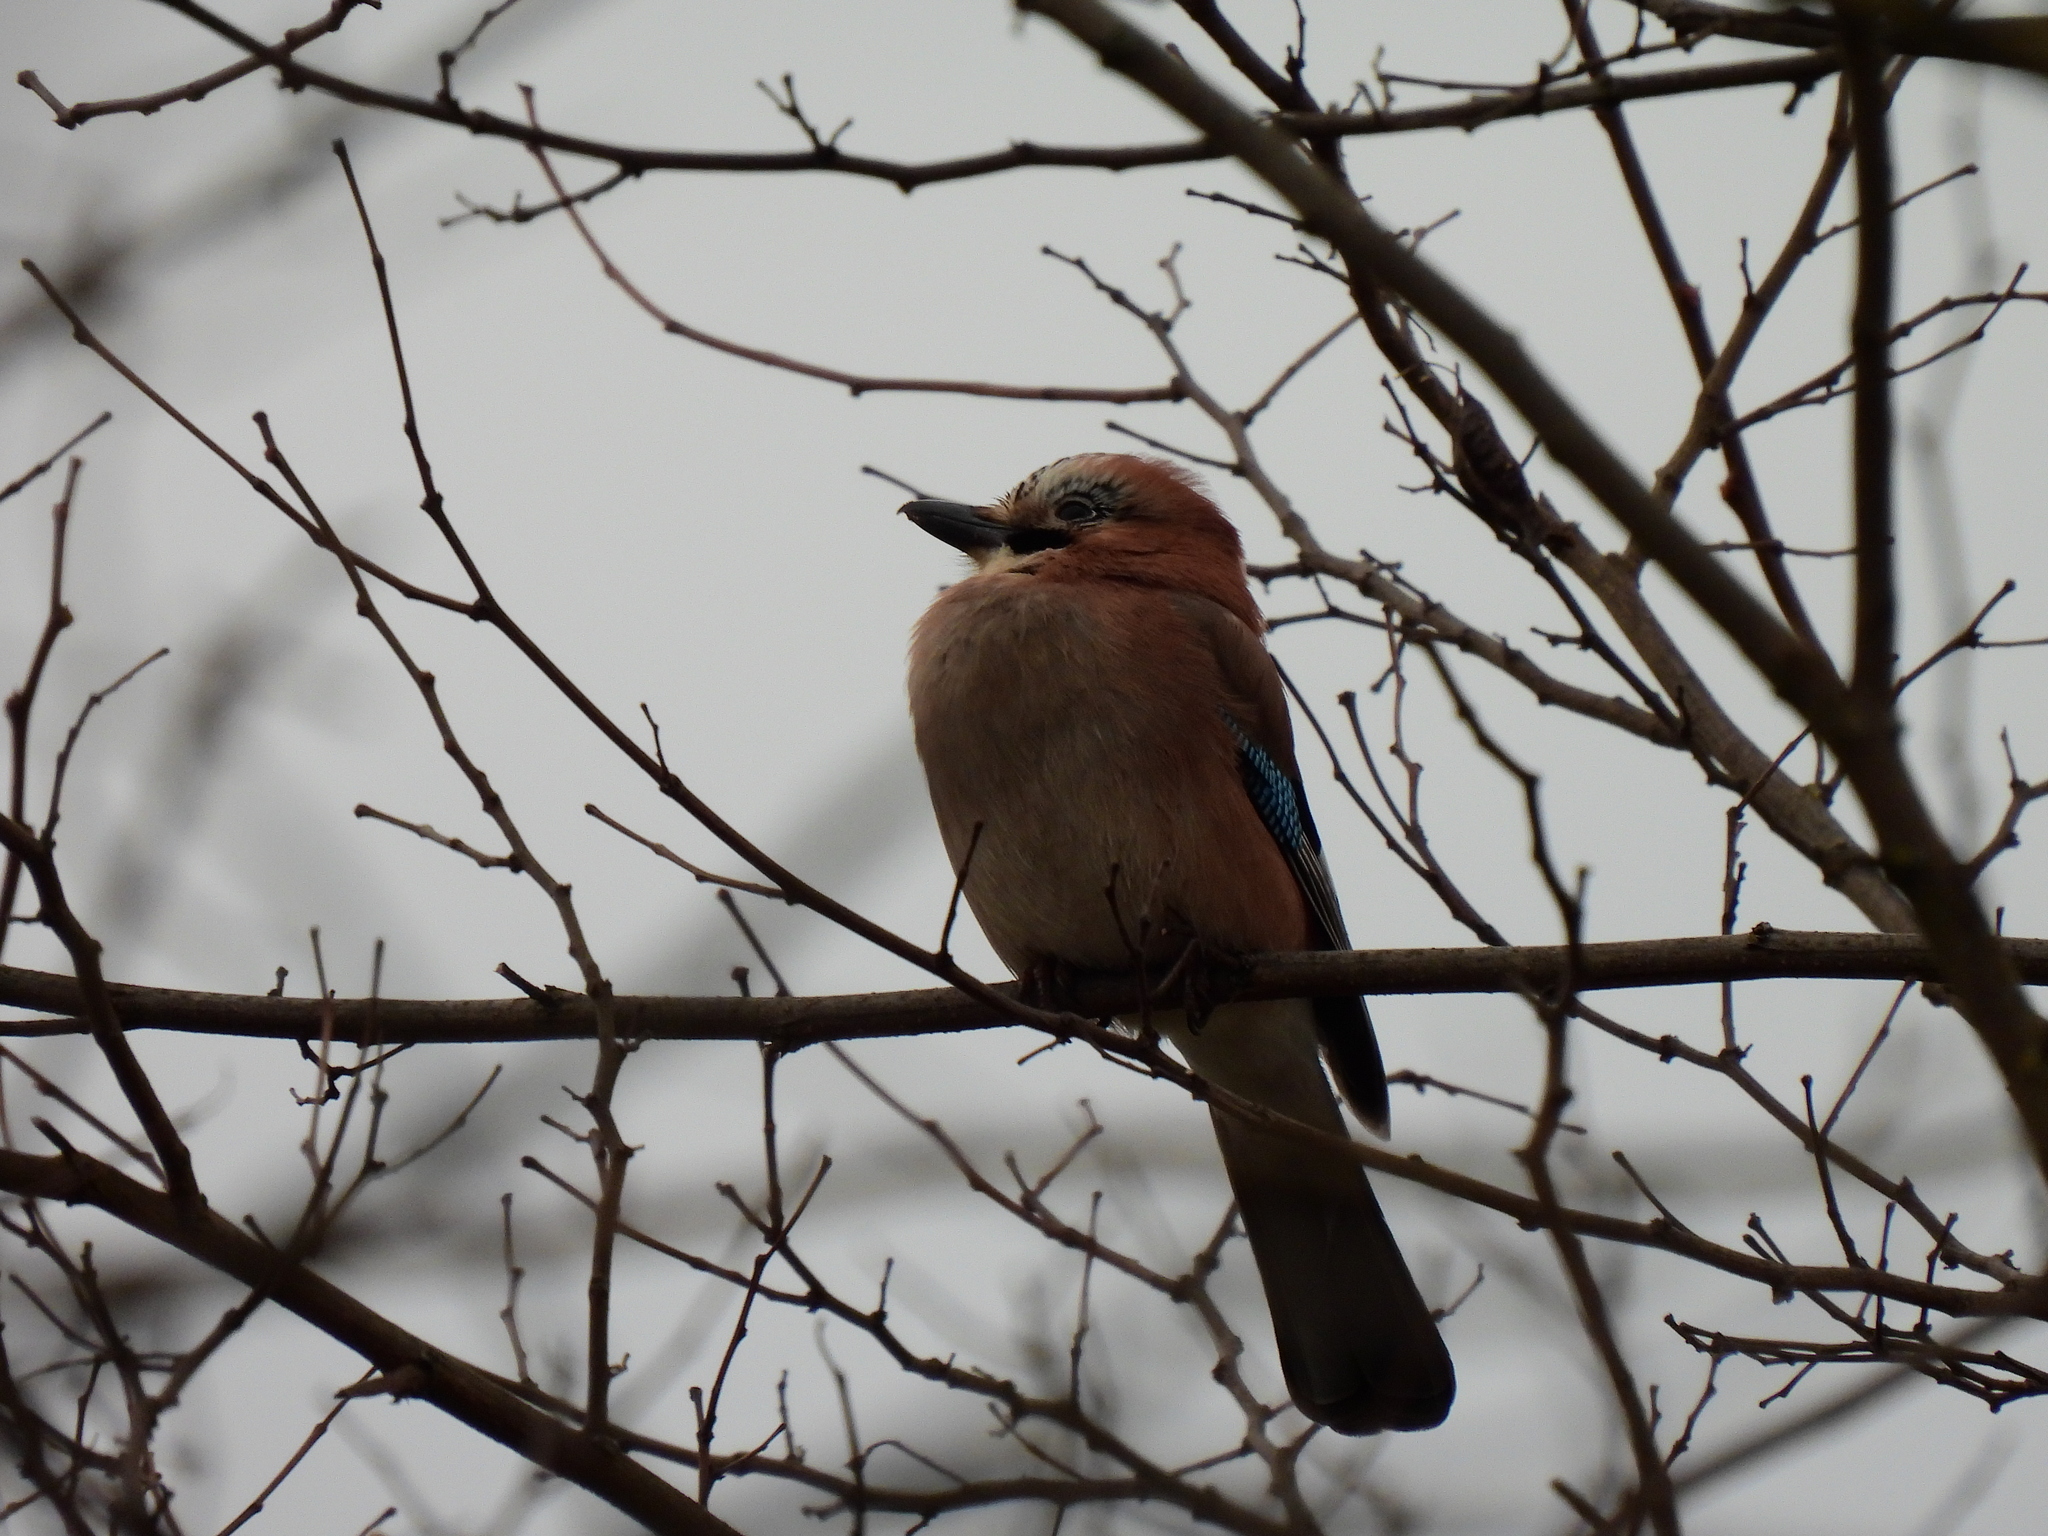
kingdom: Animalia
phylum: Chordata
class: Aves
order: Passeriformes
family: Corvidae
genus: Garrulus
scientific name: Garrulus glandarius
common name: Eurasian jay
